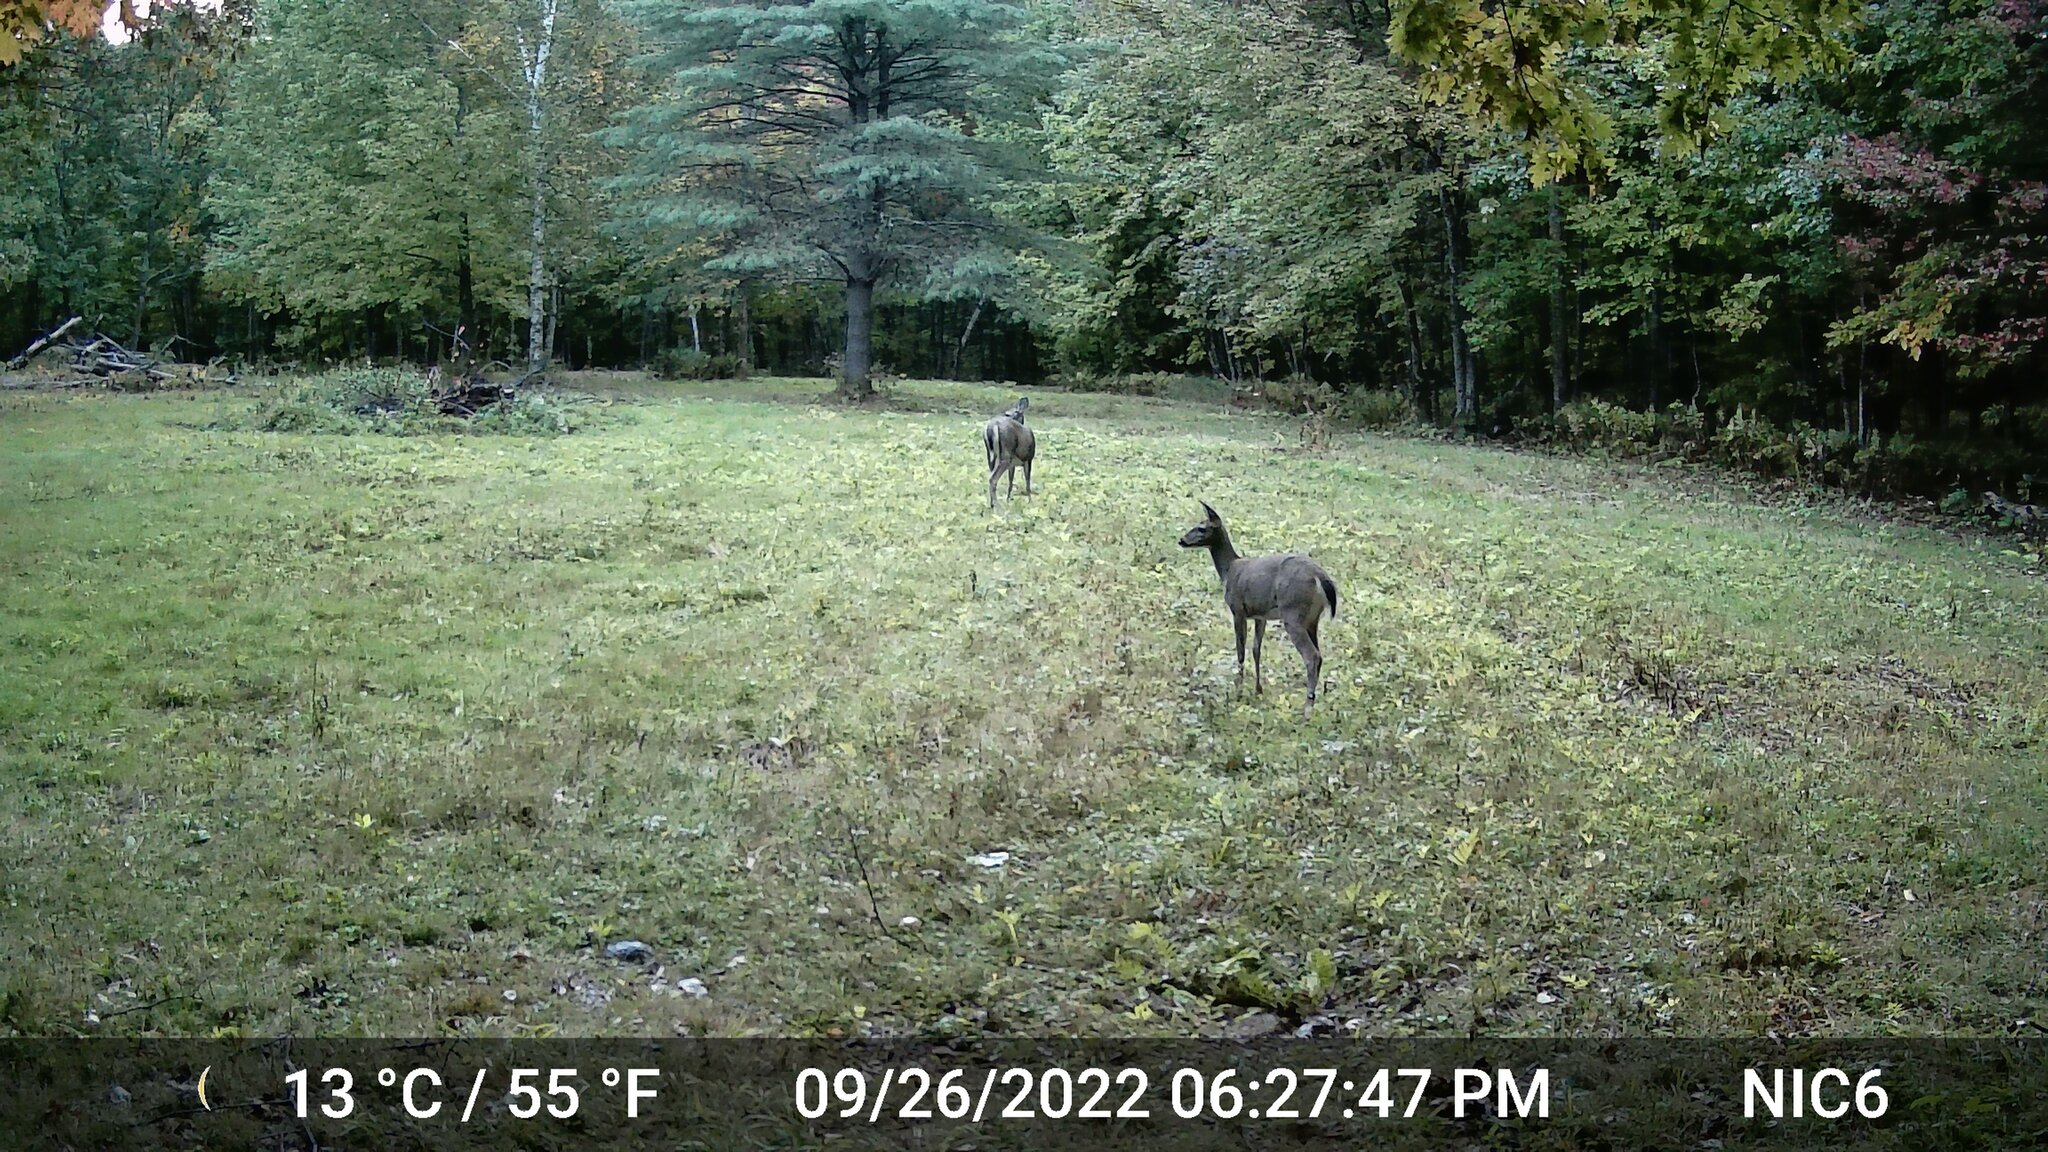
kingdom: Animalia
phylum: Chordata
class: Mammalia
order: Artiodactyla
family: Cervidae
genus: Odocoileus
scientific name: Odocoileus virginianus
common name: White-tailed deer
